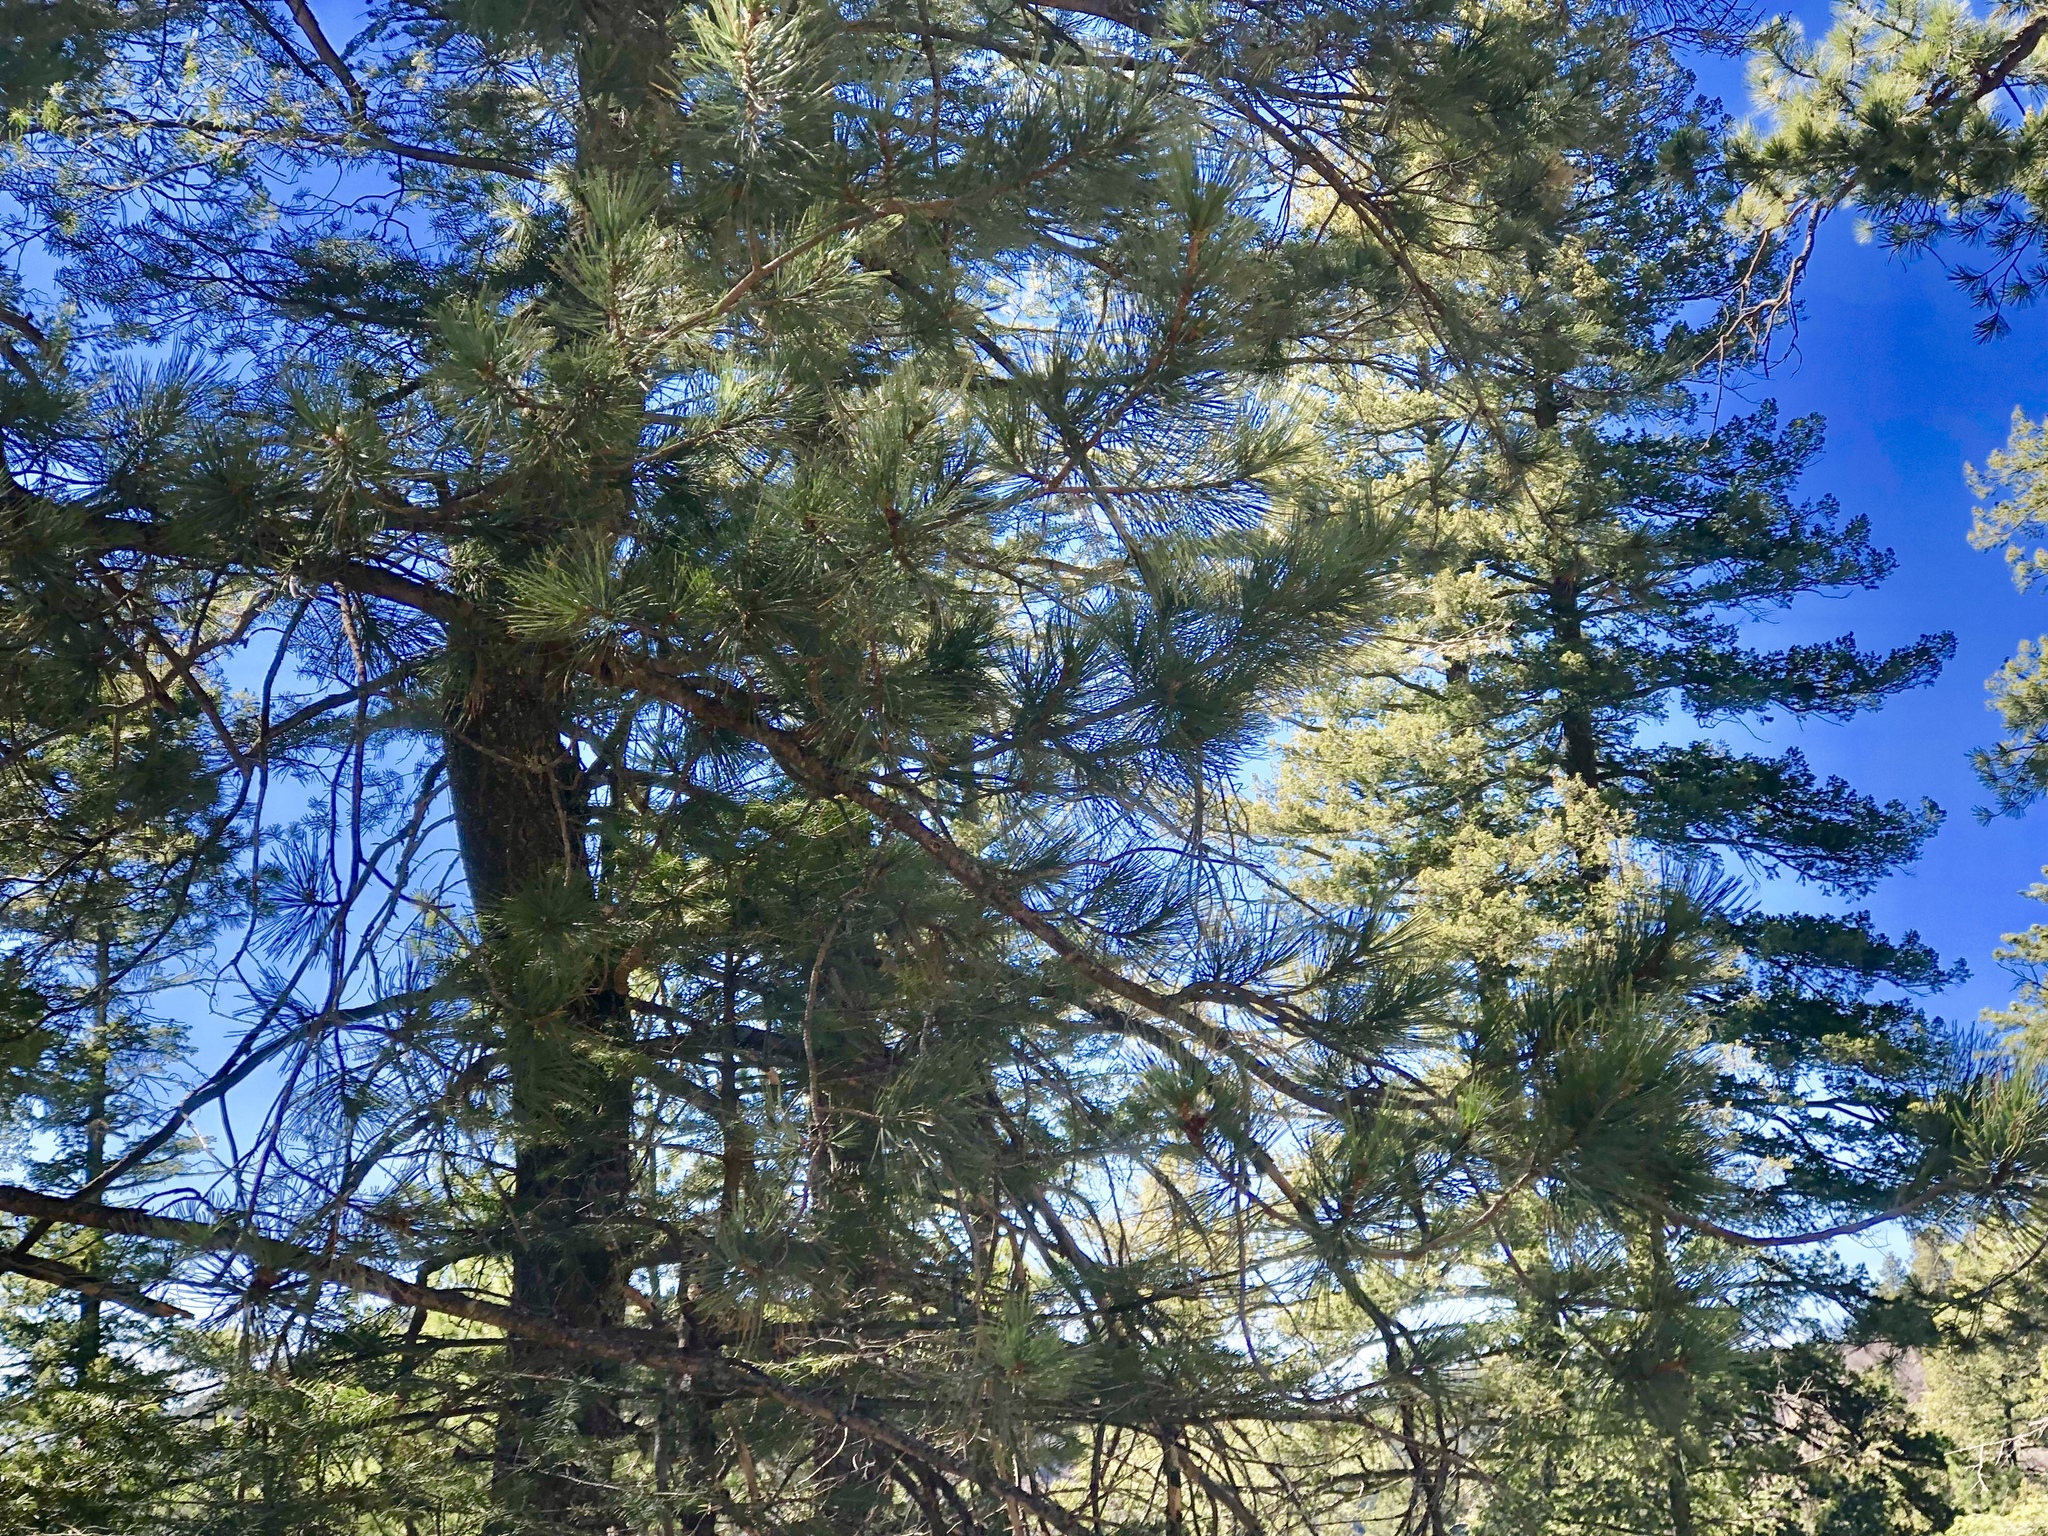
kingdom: Plantae
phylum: Tracheophyta
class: Pinopsida
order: Pinales
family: Pinaceae
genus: Pinus
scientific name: Pinus strobiformis
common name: Southwestern white pine
